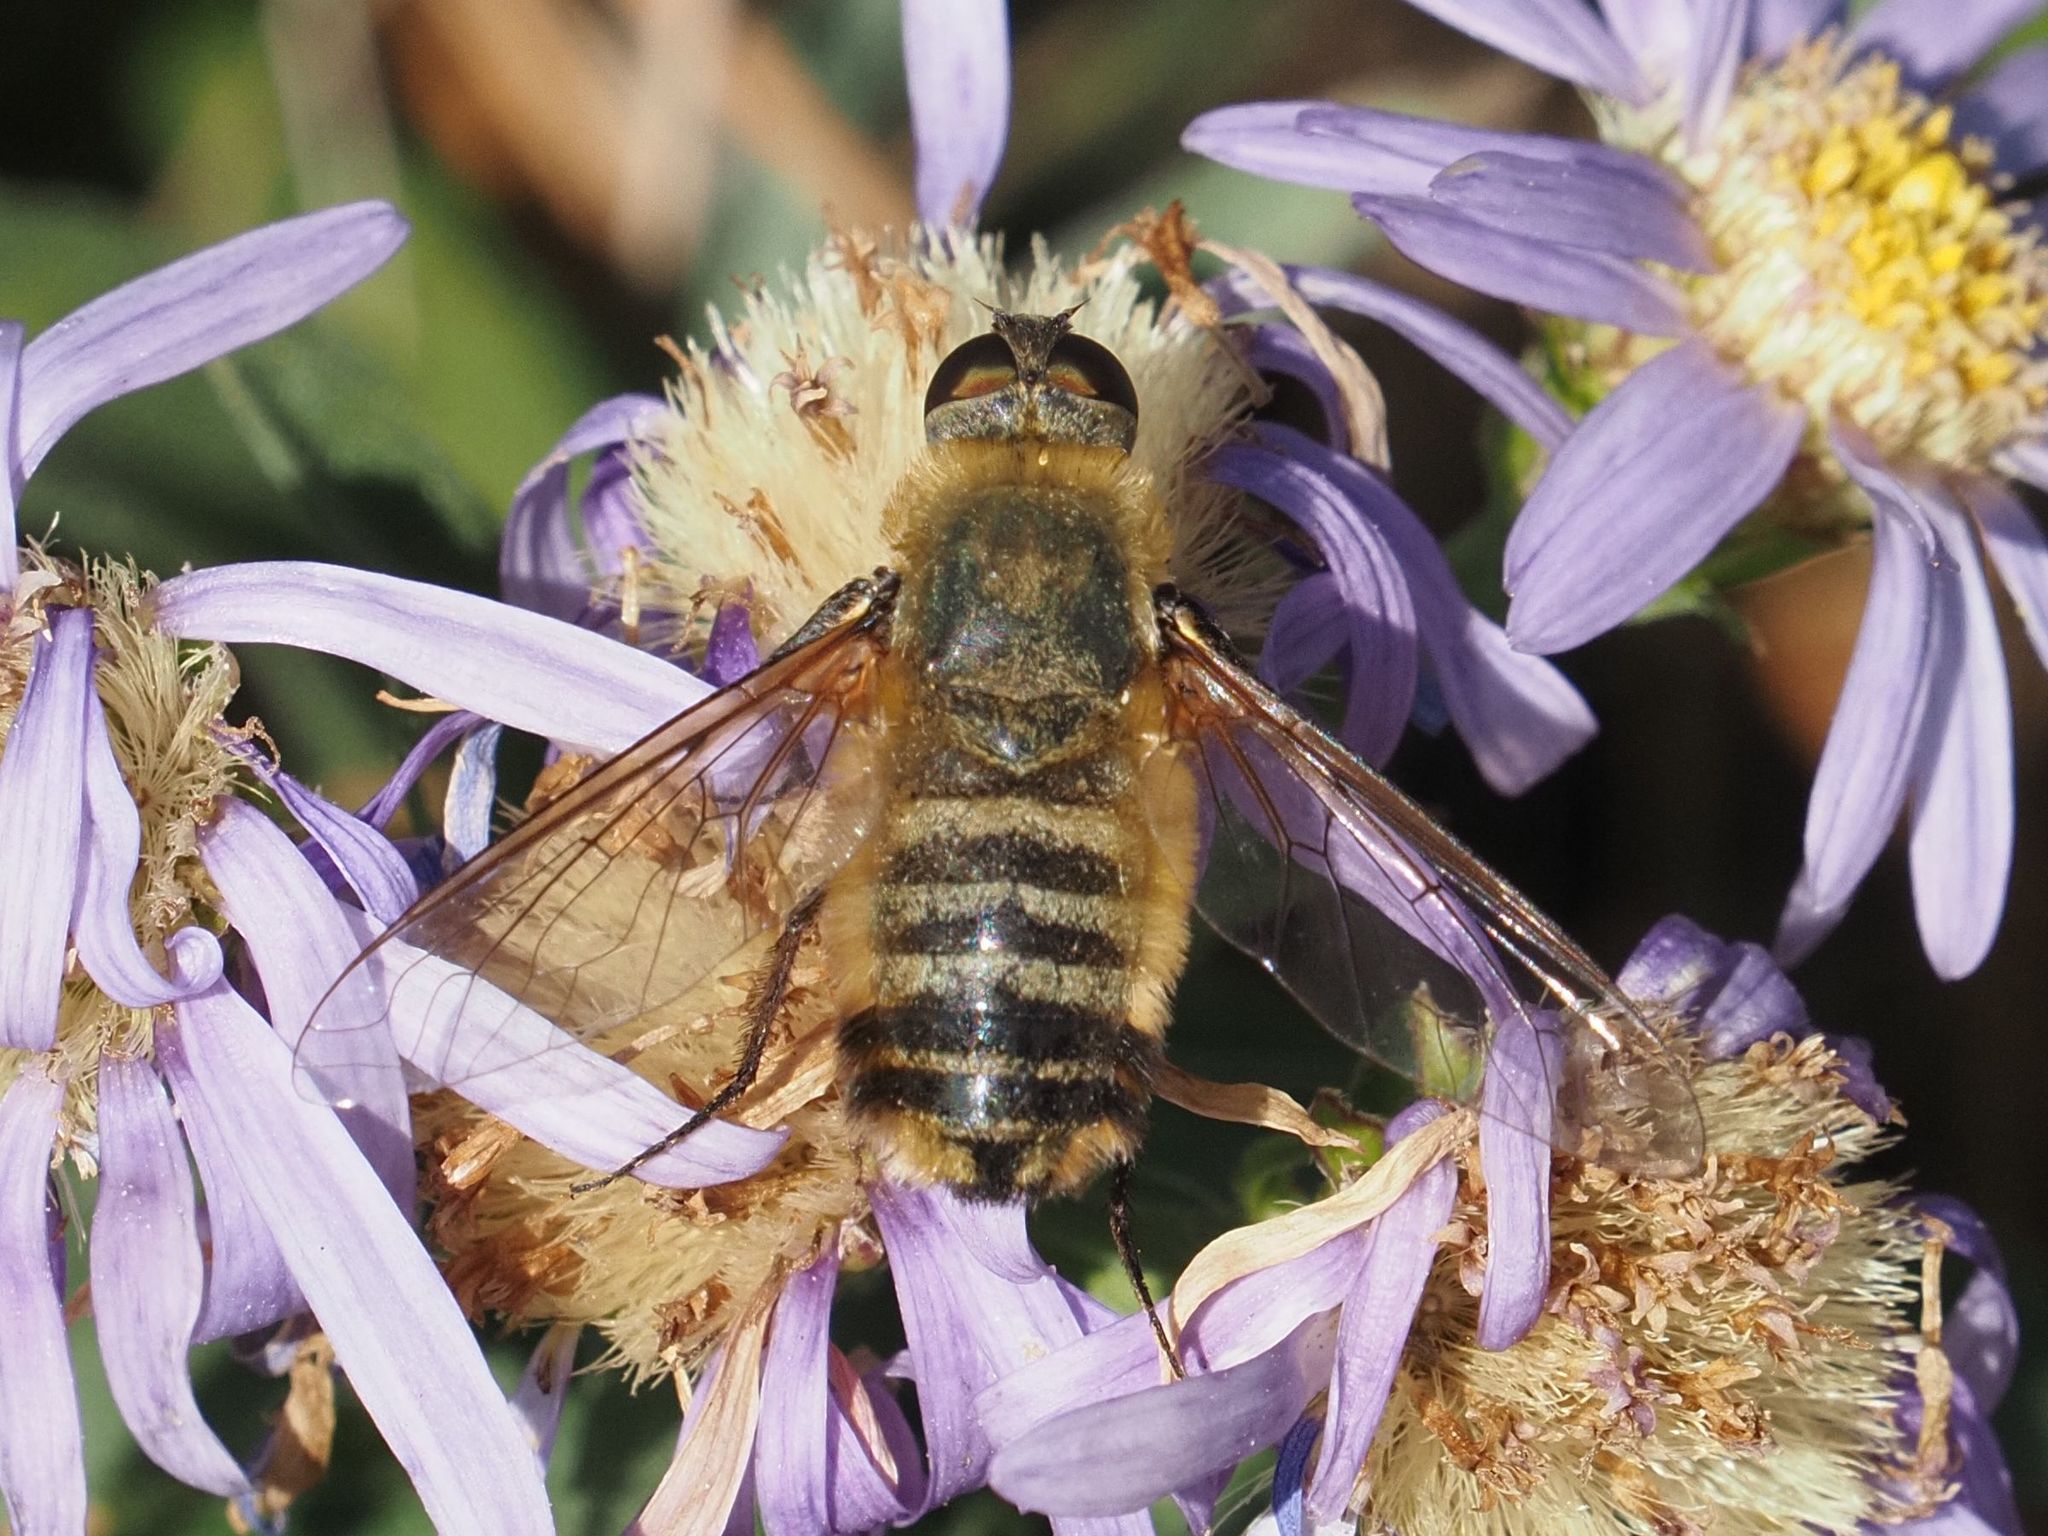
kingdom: Animalia
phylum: Arthropoda
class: Insecta
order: Diptera
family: Bombyliidae
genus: Villa
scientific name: Villa hottentotta
